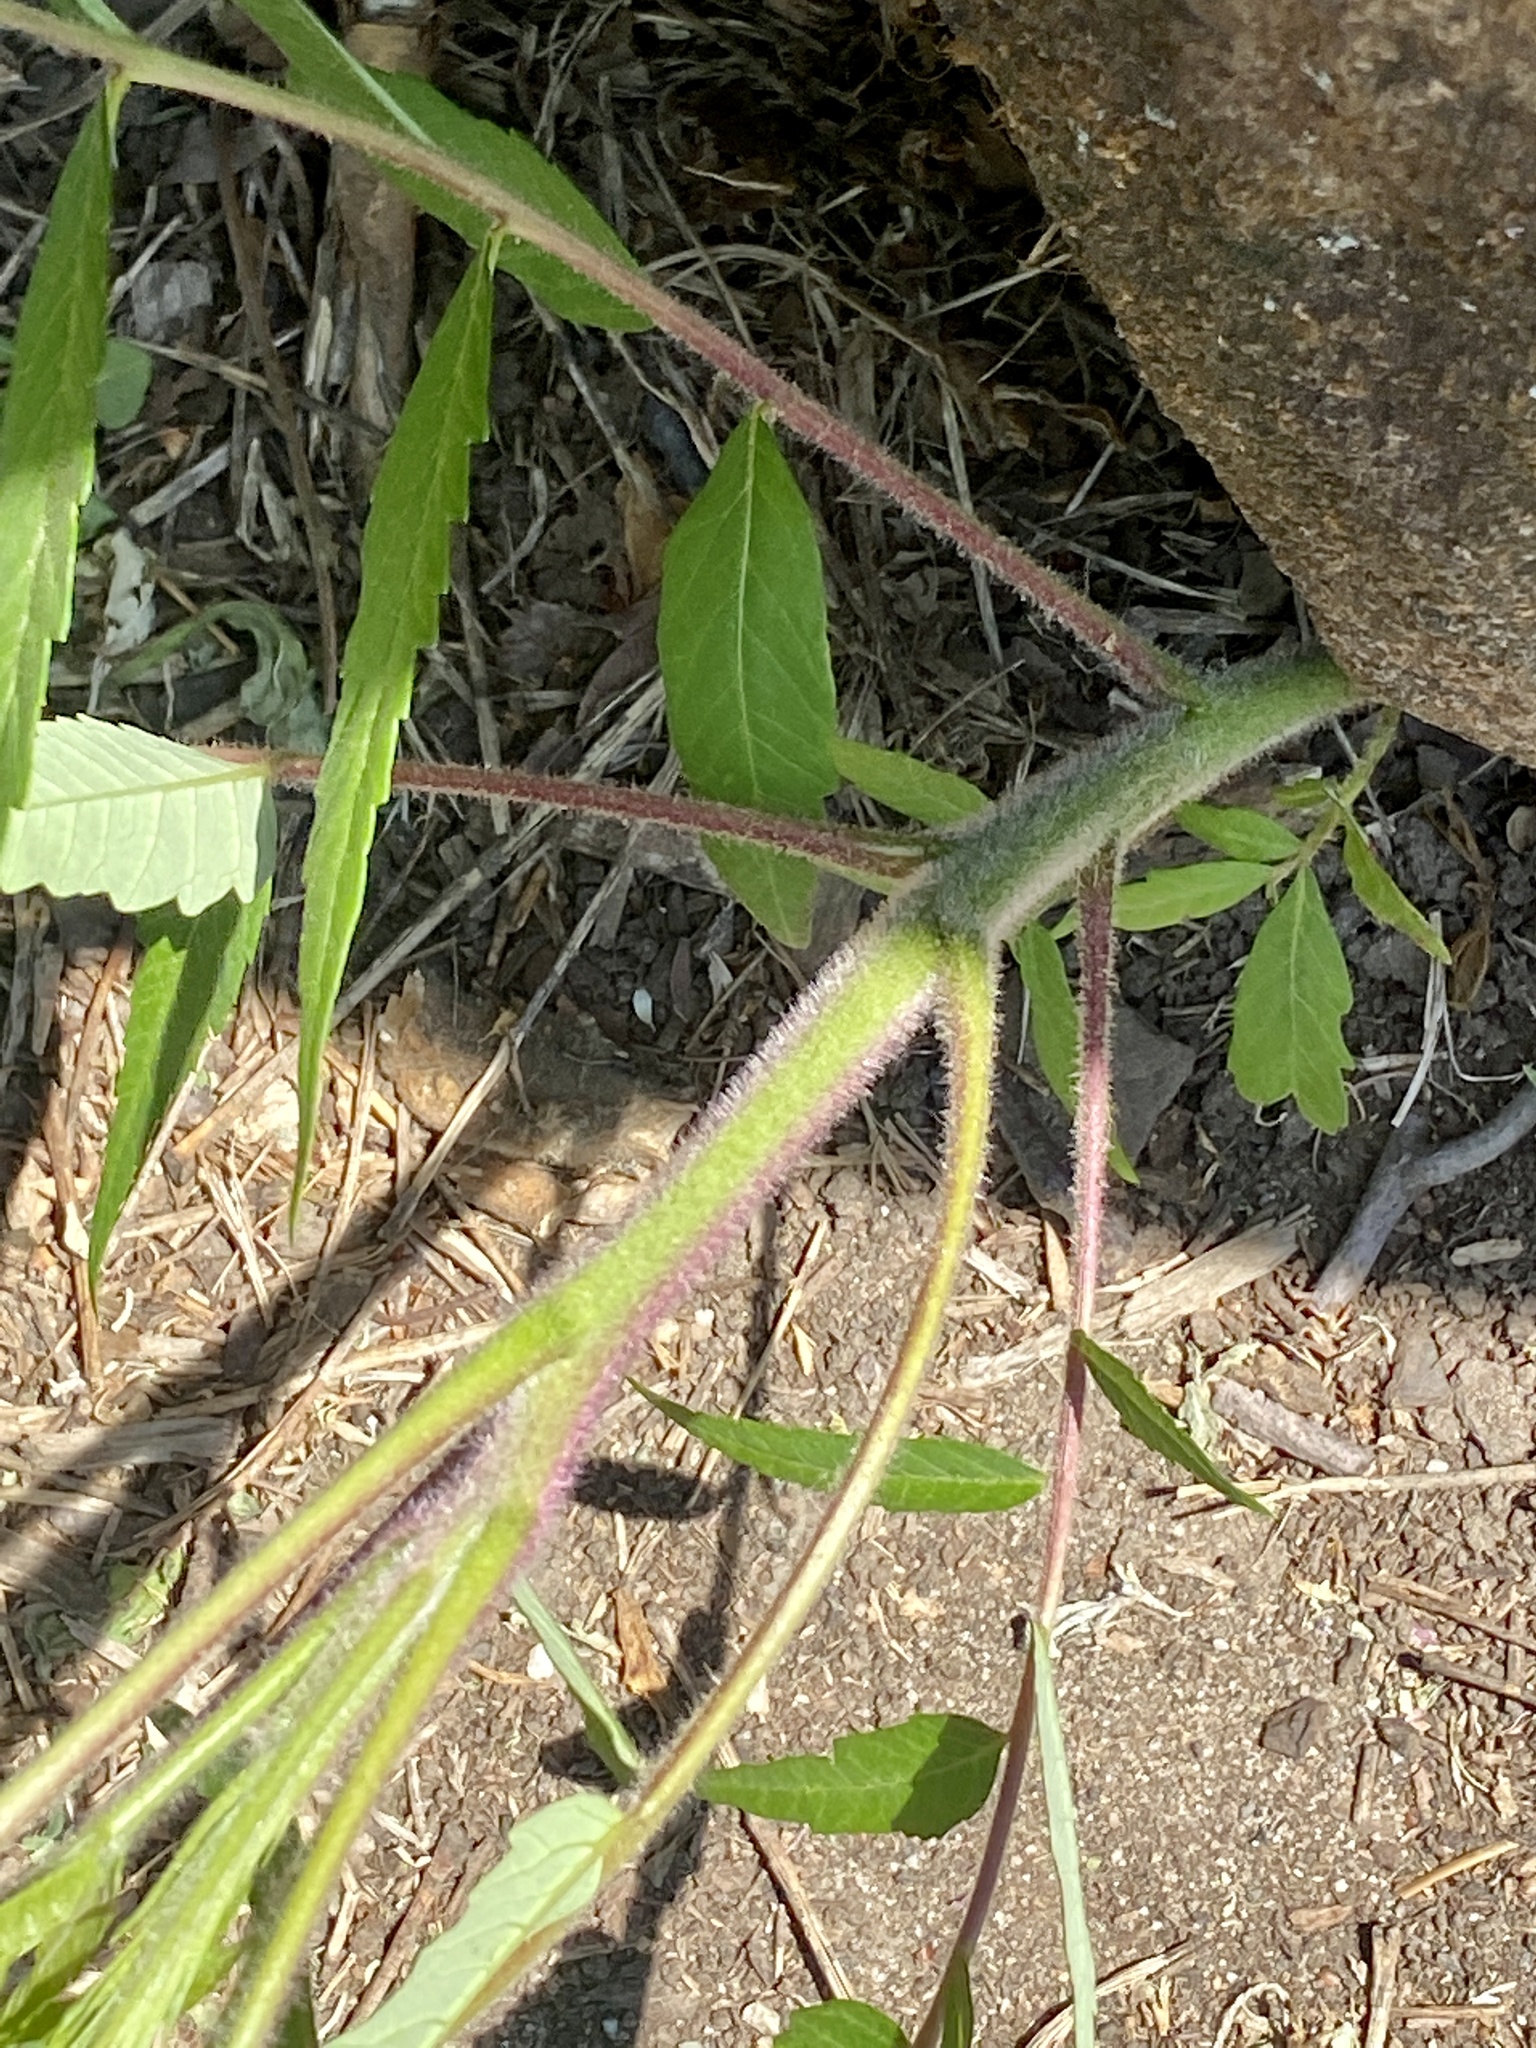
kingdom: Plantae
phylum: Tracheophyta
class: Magnoliopsida
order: Sapindales
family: Anacardiaceae
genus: Rhus
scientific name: Rhus typhina
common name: Staghorn sumac
